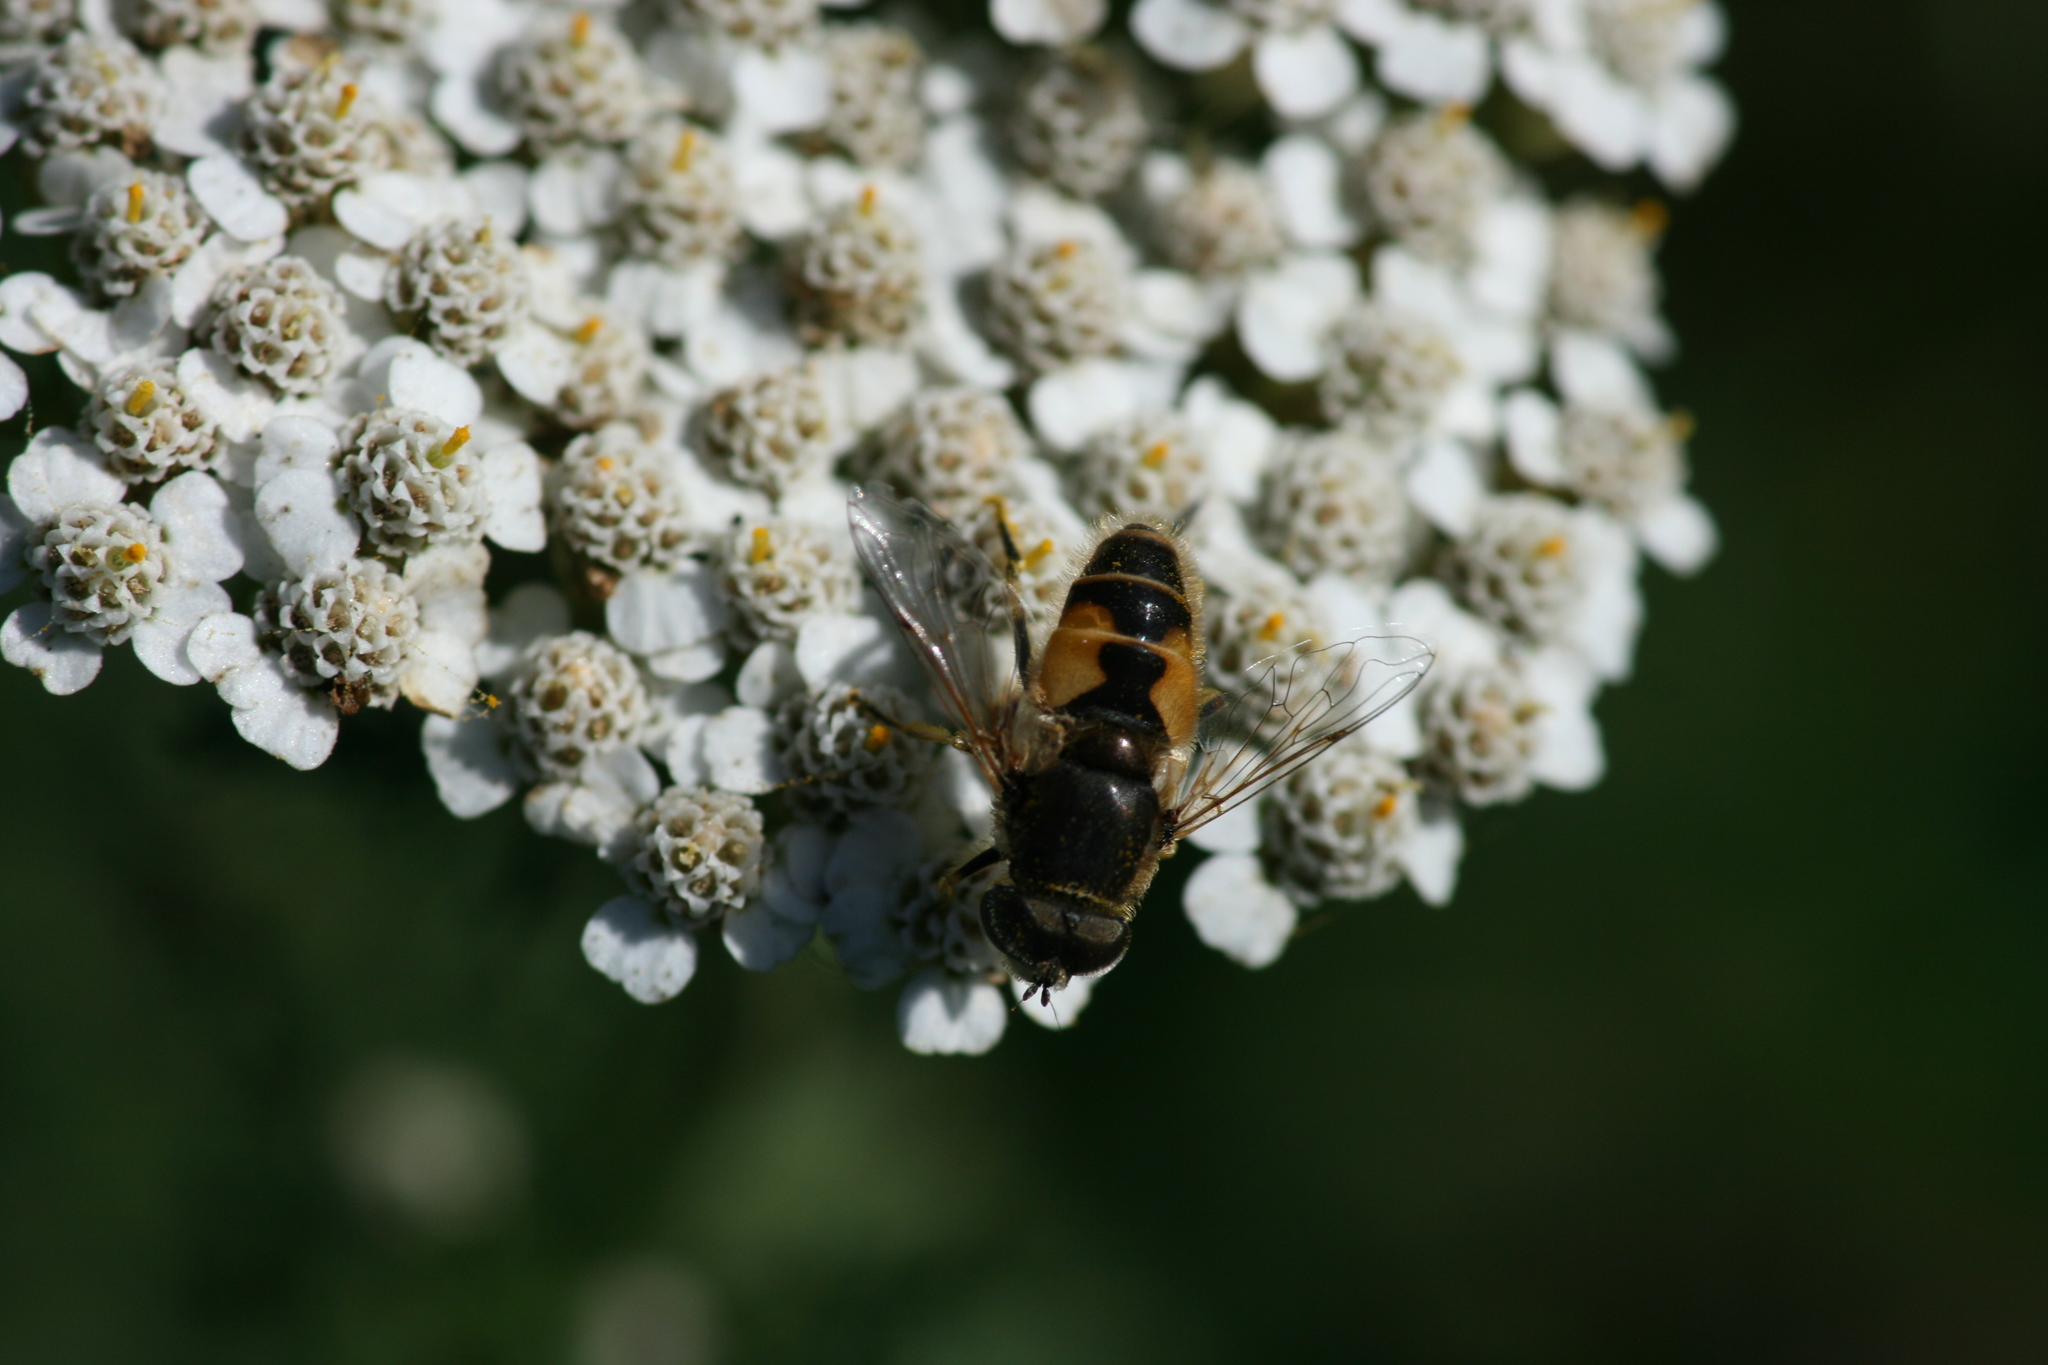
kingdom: Animalia
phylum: Arthropoda
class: Insecta
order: Diptera
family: Syrphidae
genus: Eristalis
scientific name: Eristalis arbustorum
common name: Hover fly
